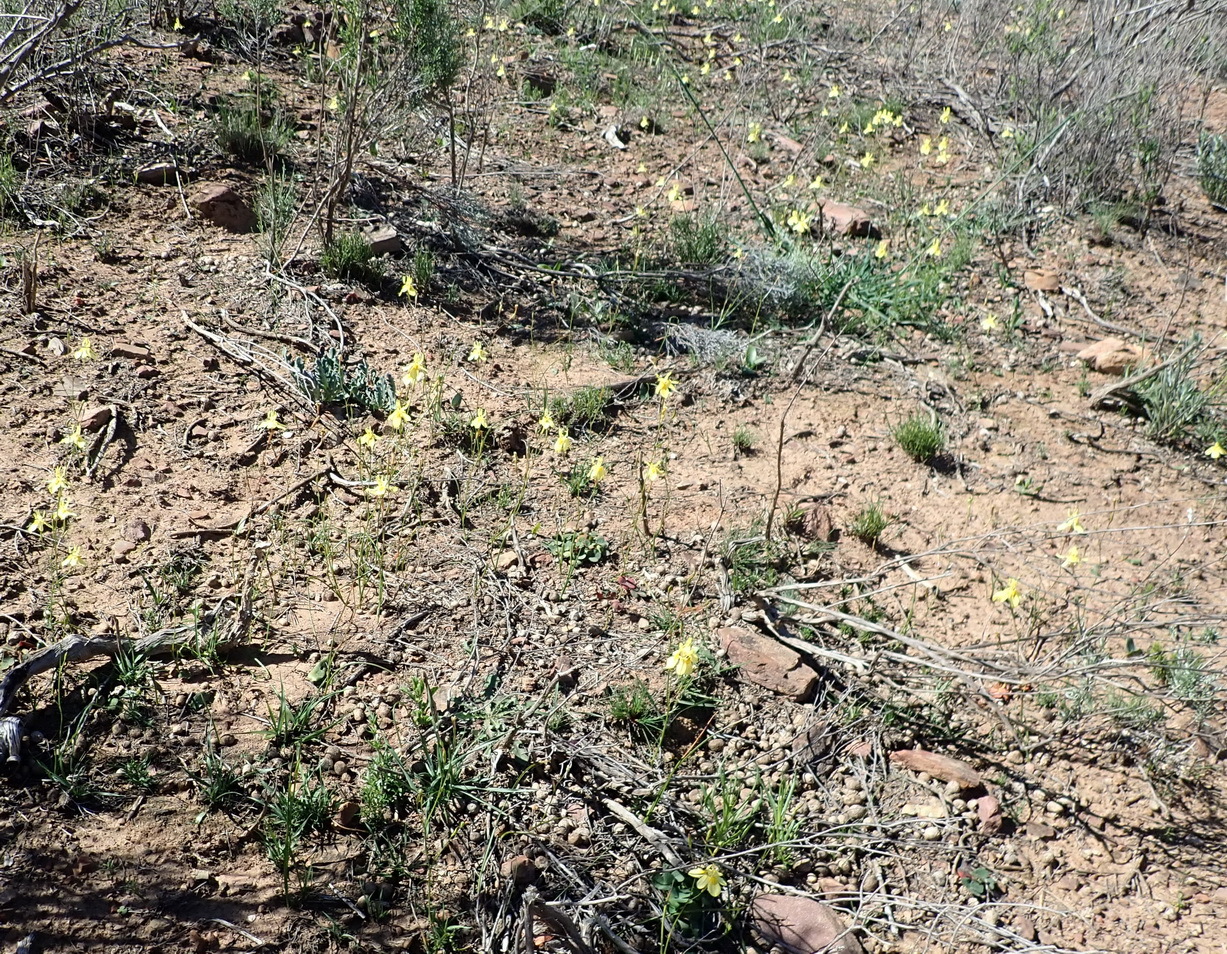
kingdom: Plantae
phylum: Tracheophyta
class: Liliopsida
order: Asparagales
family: Iridaceae
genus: Moraea
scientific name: Moraea gawleri
